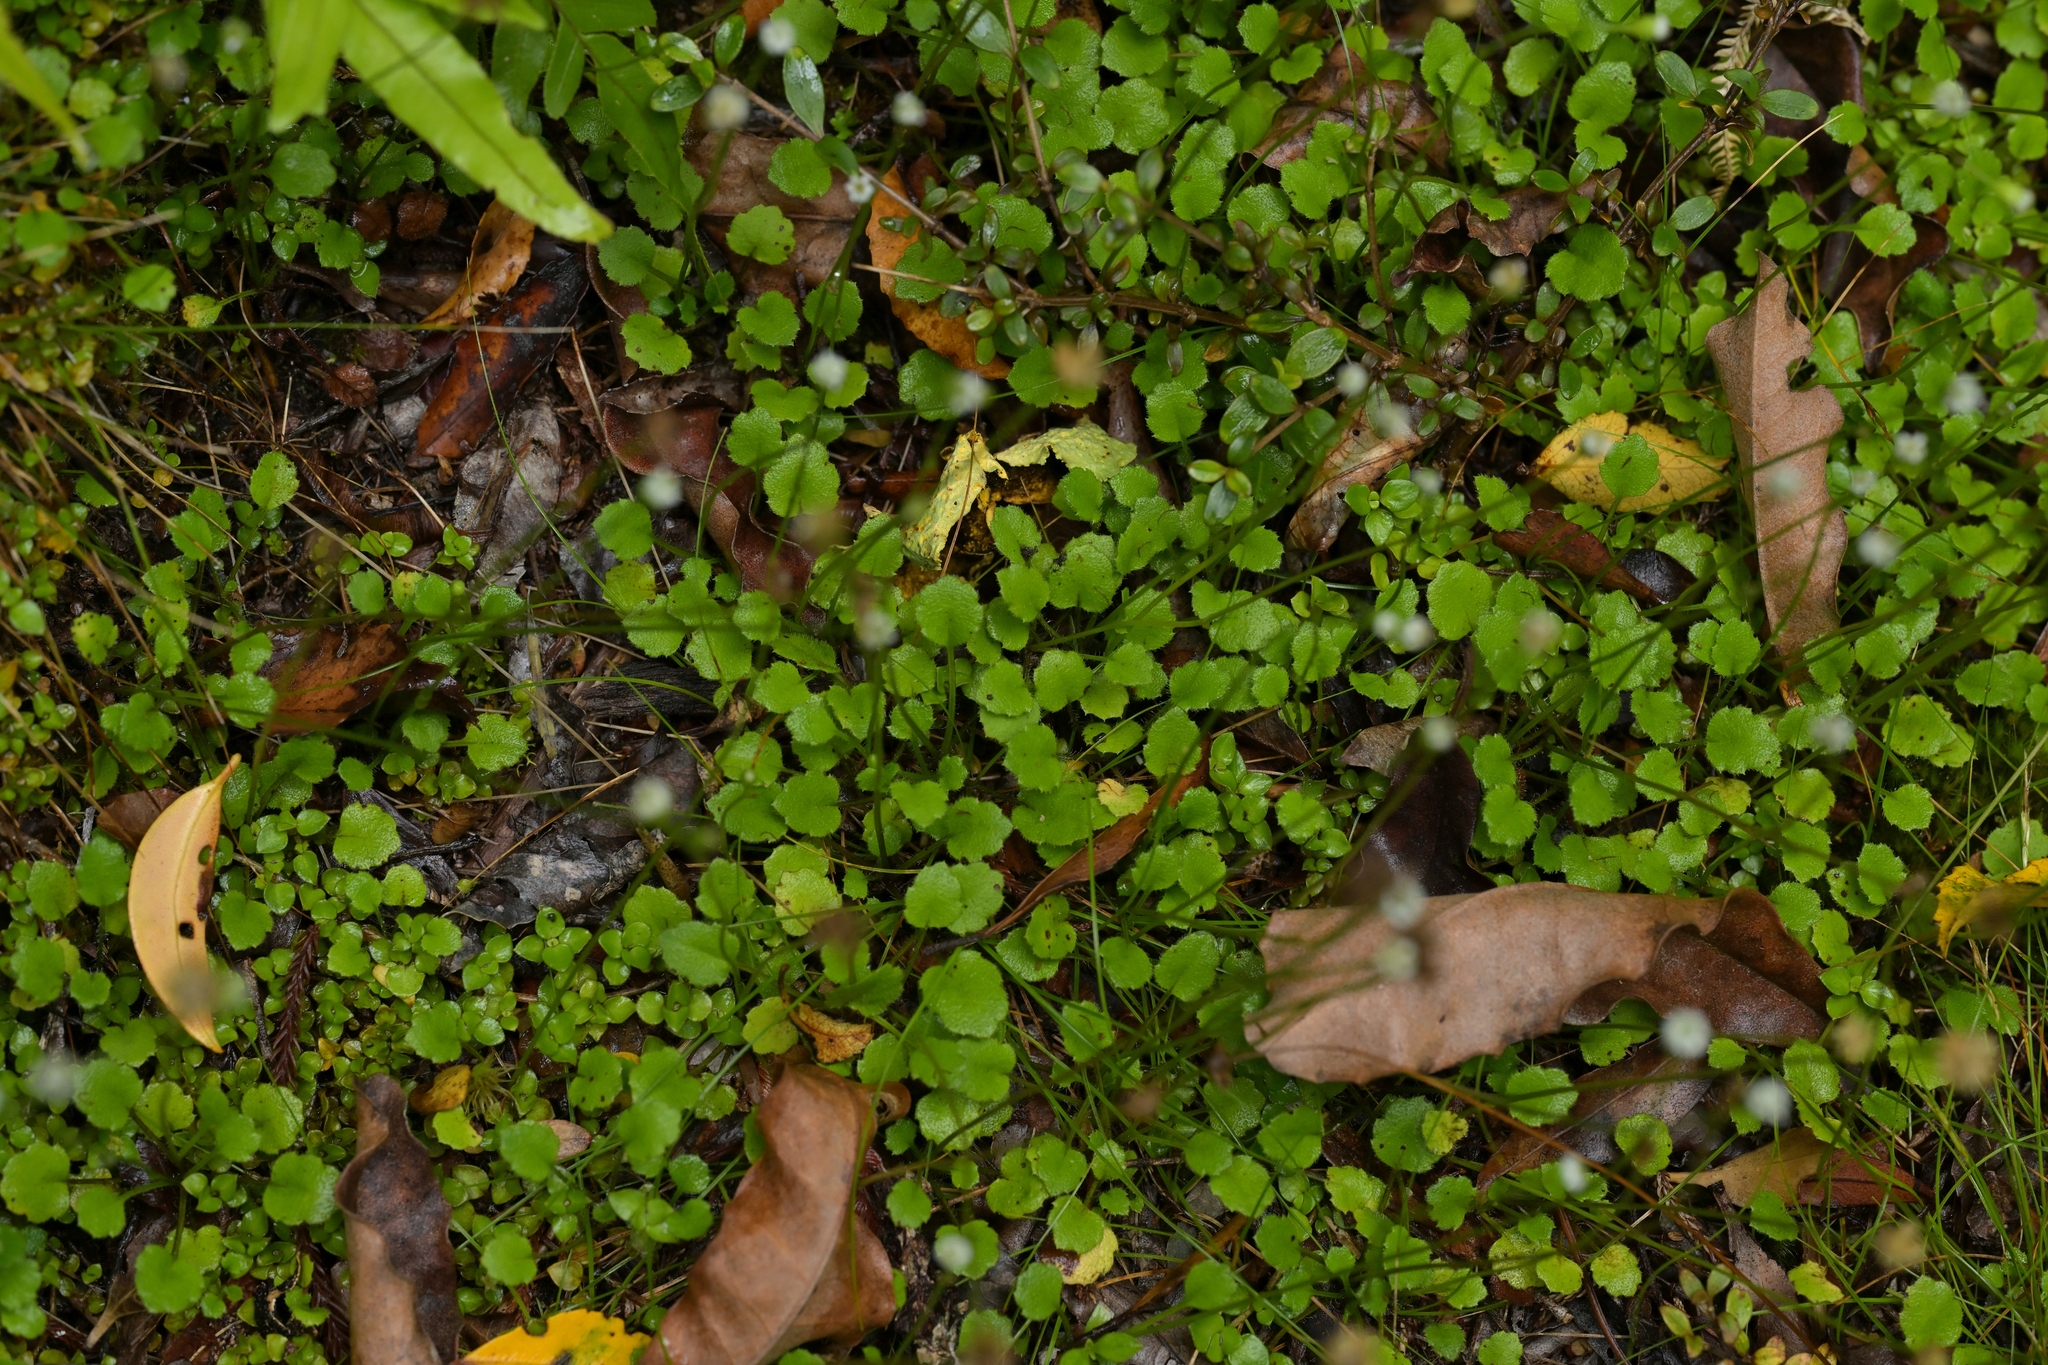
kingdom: Plantae
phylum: Tracheophyta
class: Magnoliopsida
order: Asterales
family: Asteraceae
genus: Lagenophora
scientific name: Lagenophora strangulata
